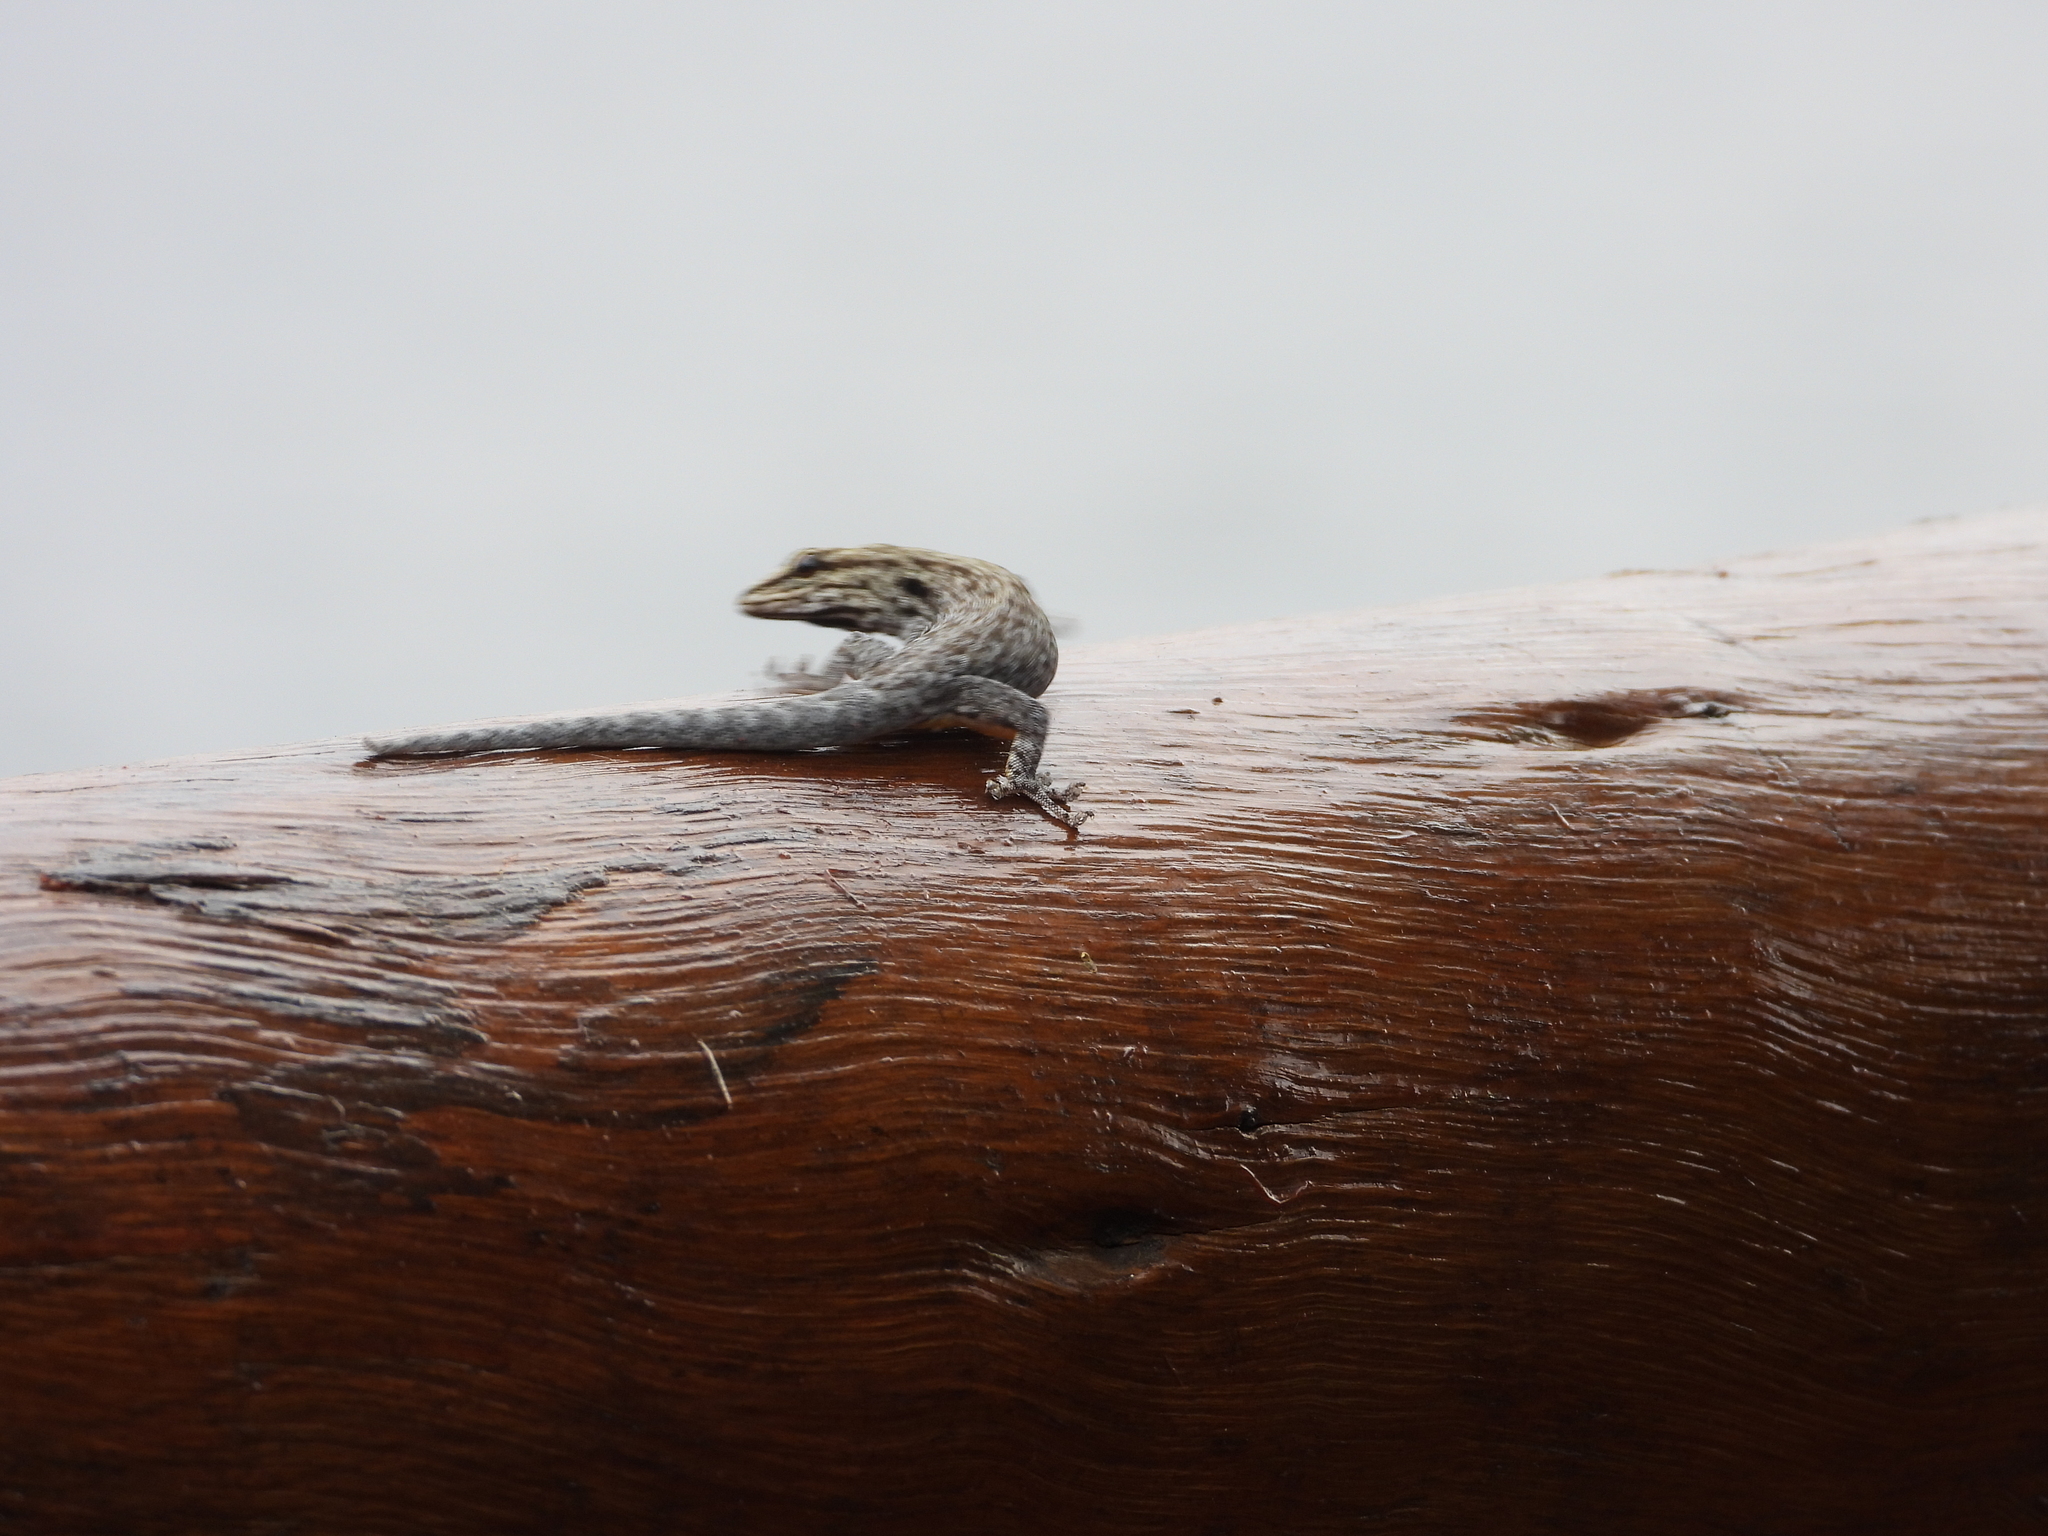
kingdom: Animalia
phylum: Chordata
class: Squamata
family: Gekkonidae
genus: Lygodactylus
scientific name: Lygodactylus chobiensis
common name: Okavango dwarf gecko
